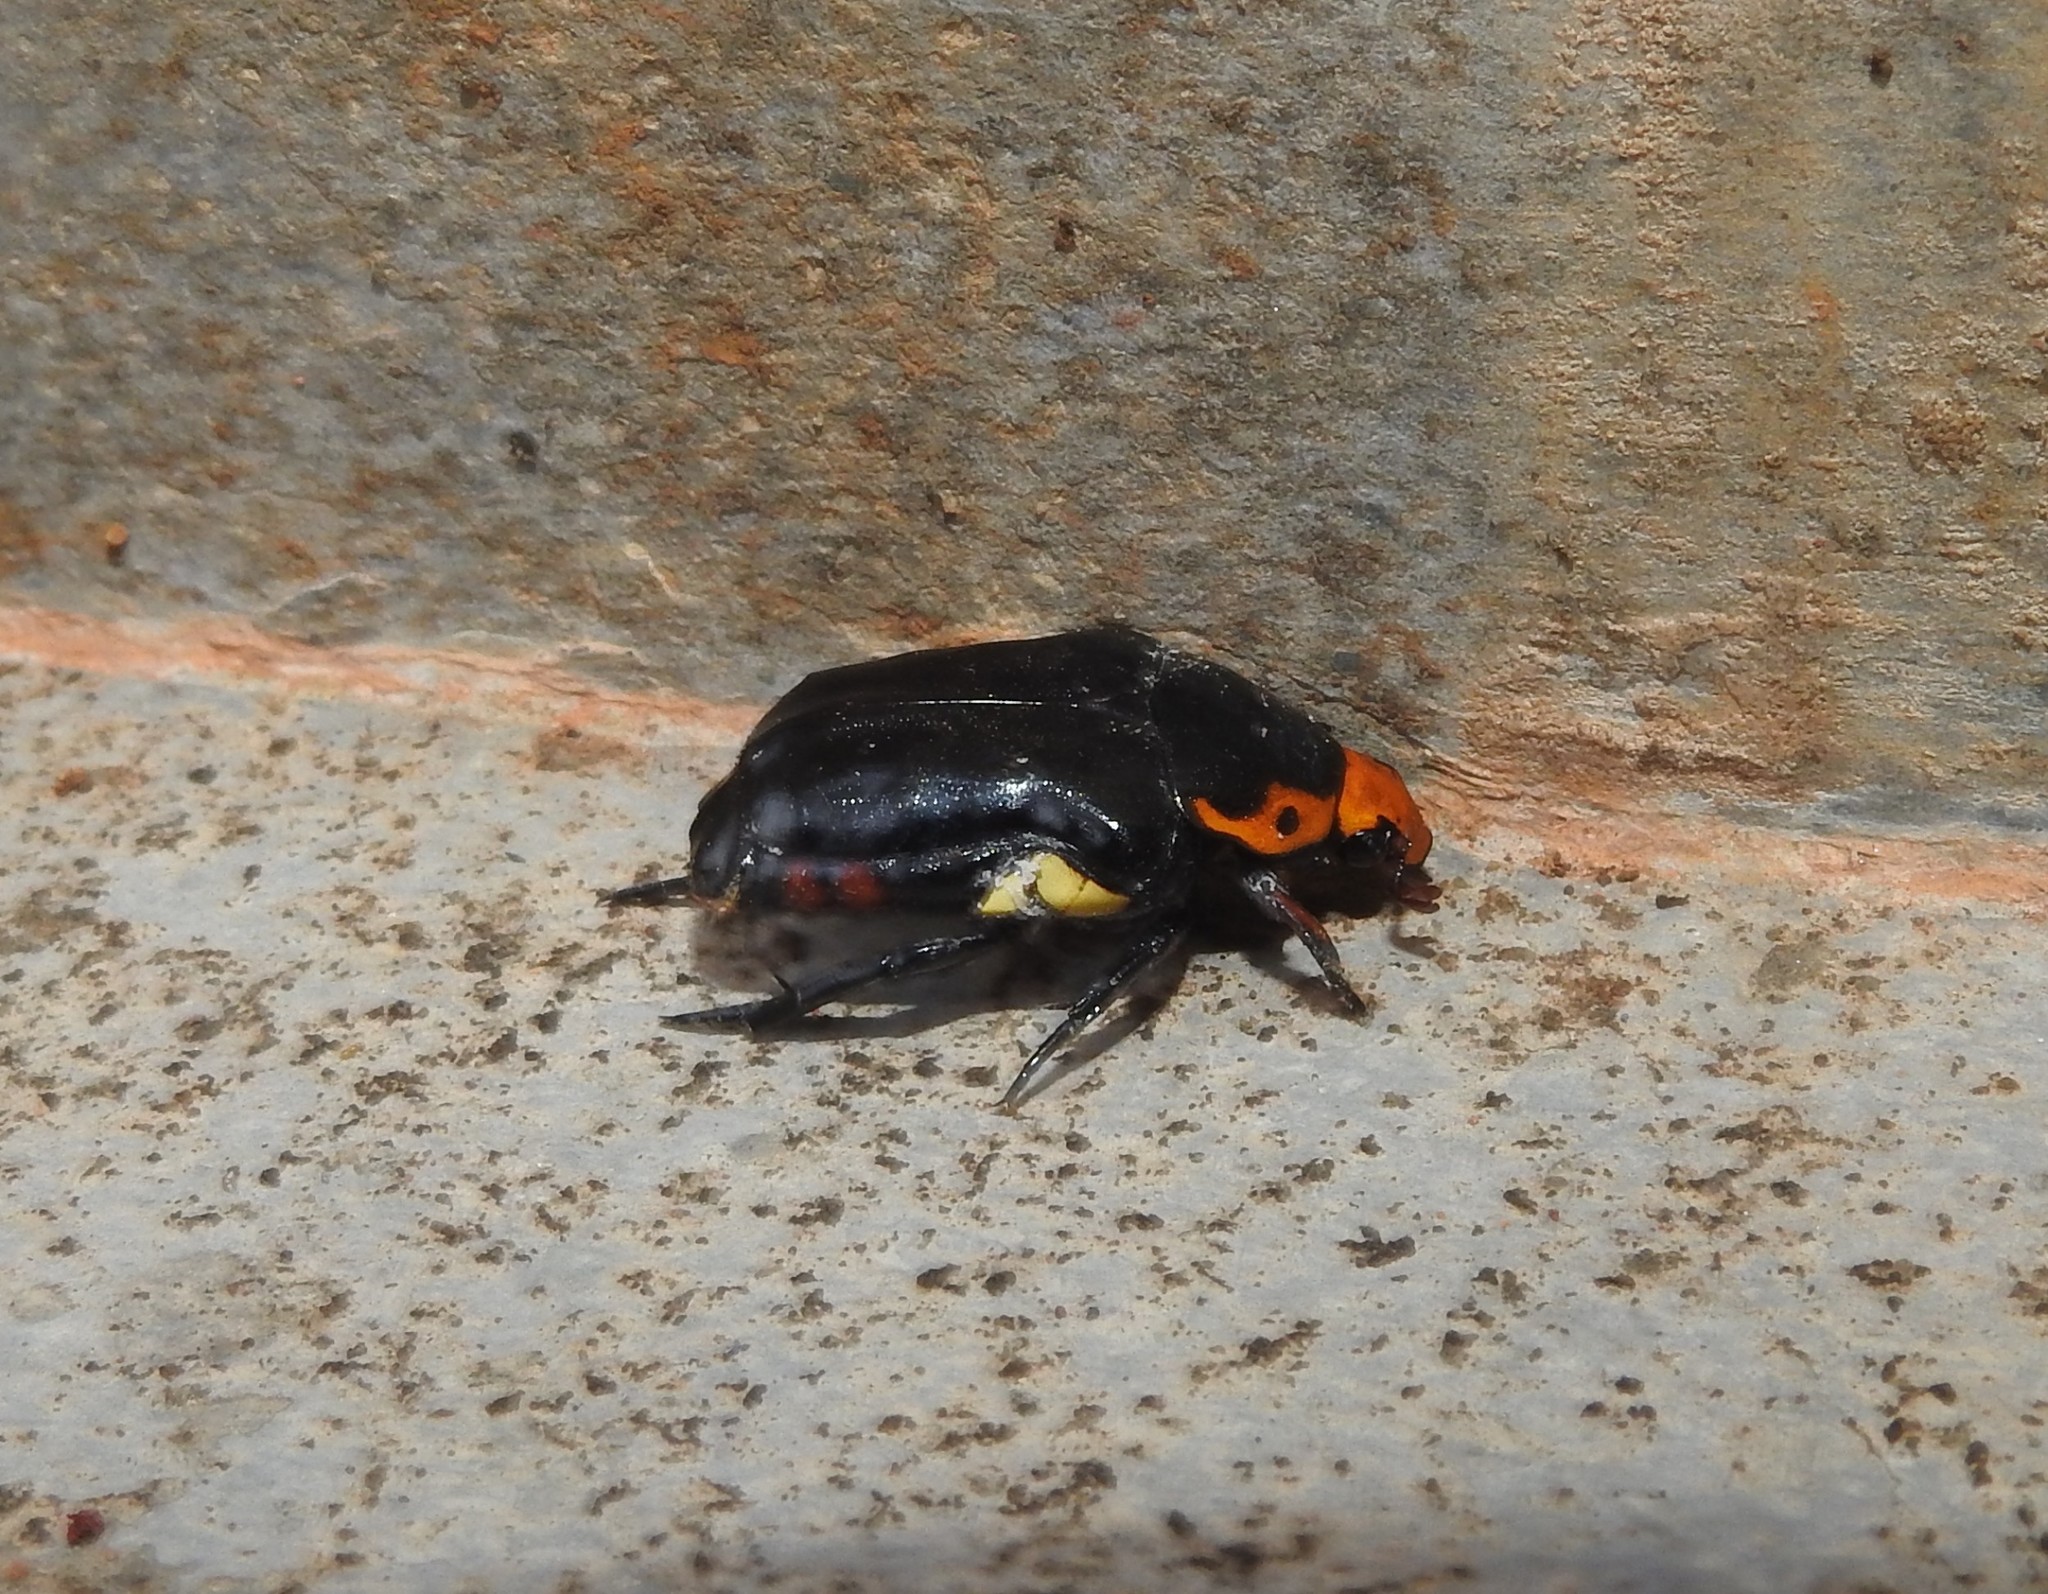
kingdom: Animalia
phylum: Arthropoda
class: Insecta
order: Coleoptera
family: Scarabaeidae
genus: Campsiura
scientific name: Campsiura javanica
